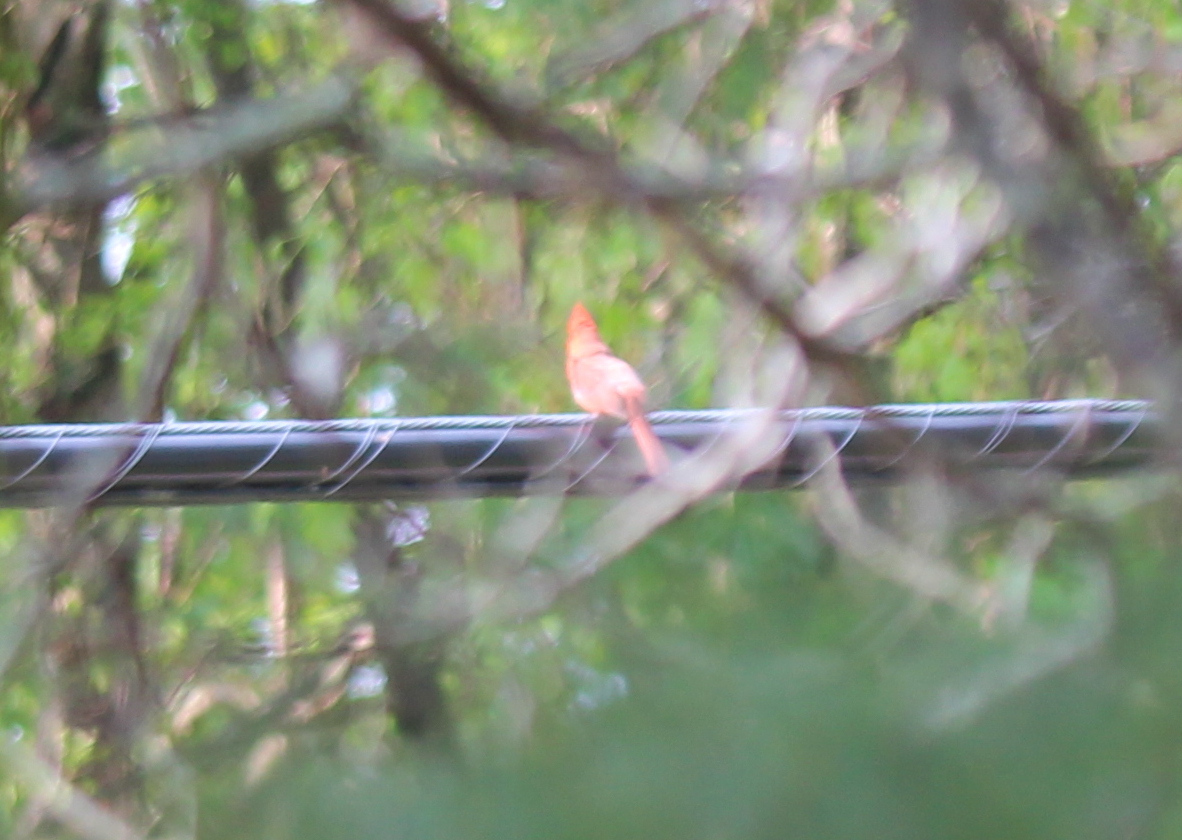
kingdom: Animalia
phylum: Chordata
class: Aves
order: Passeriformes
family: Cardinalidae
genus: Cardinalis
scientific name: Cardinalis cardinalis
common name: Northern cardinal
